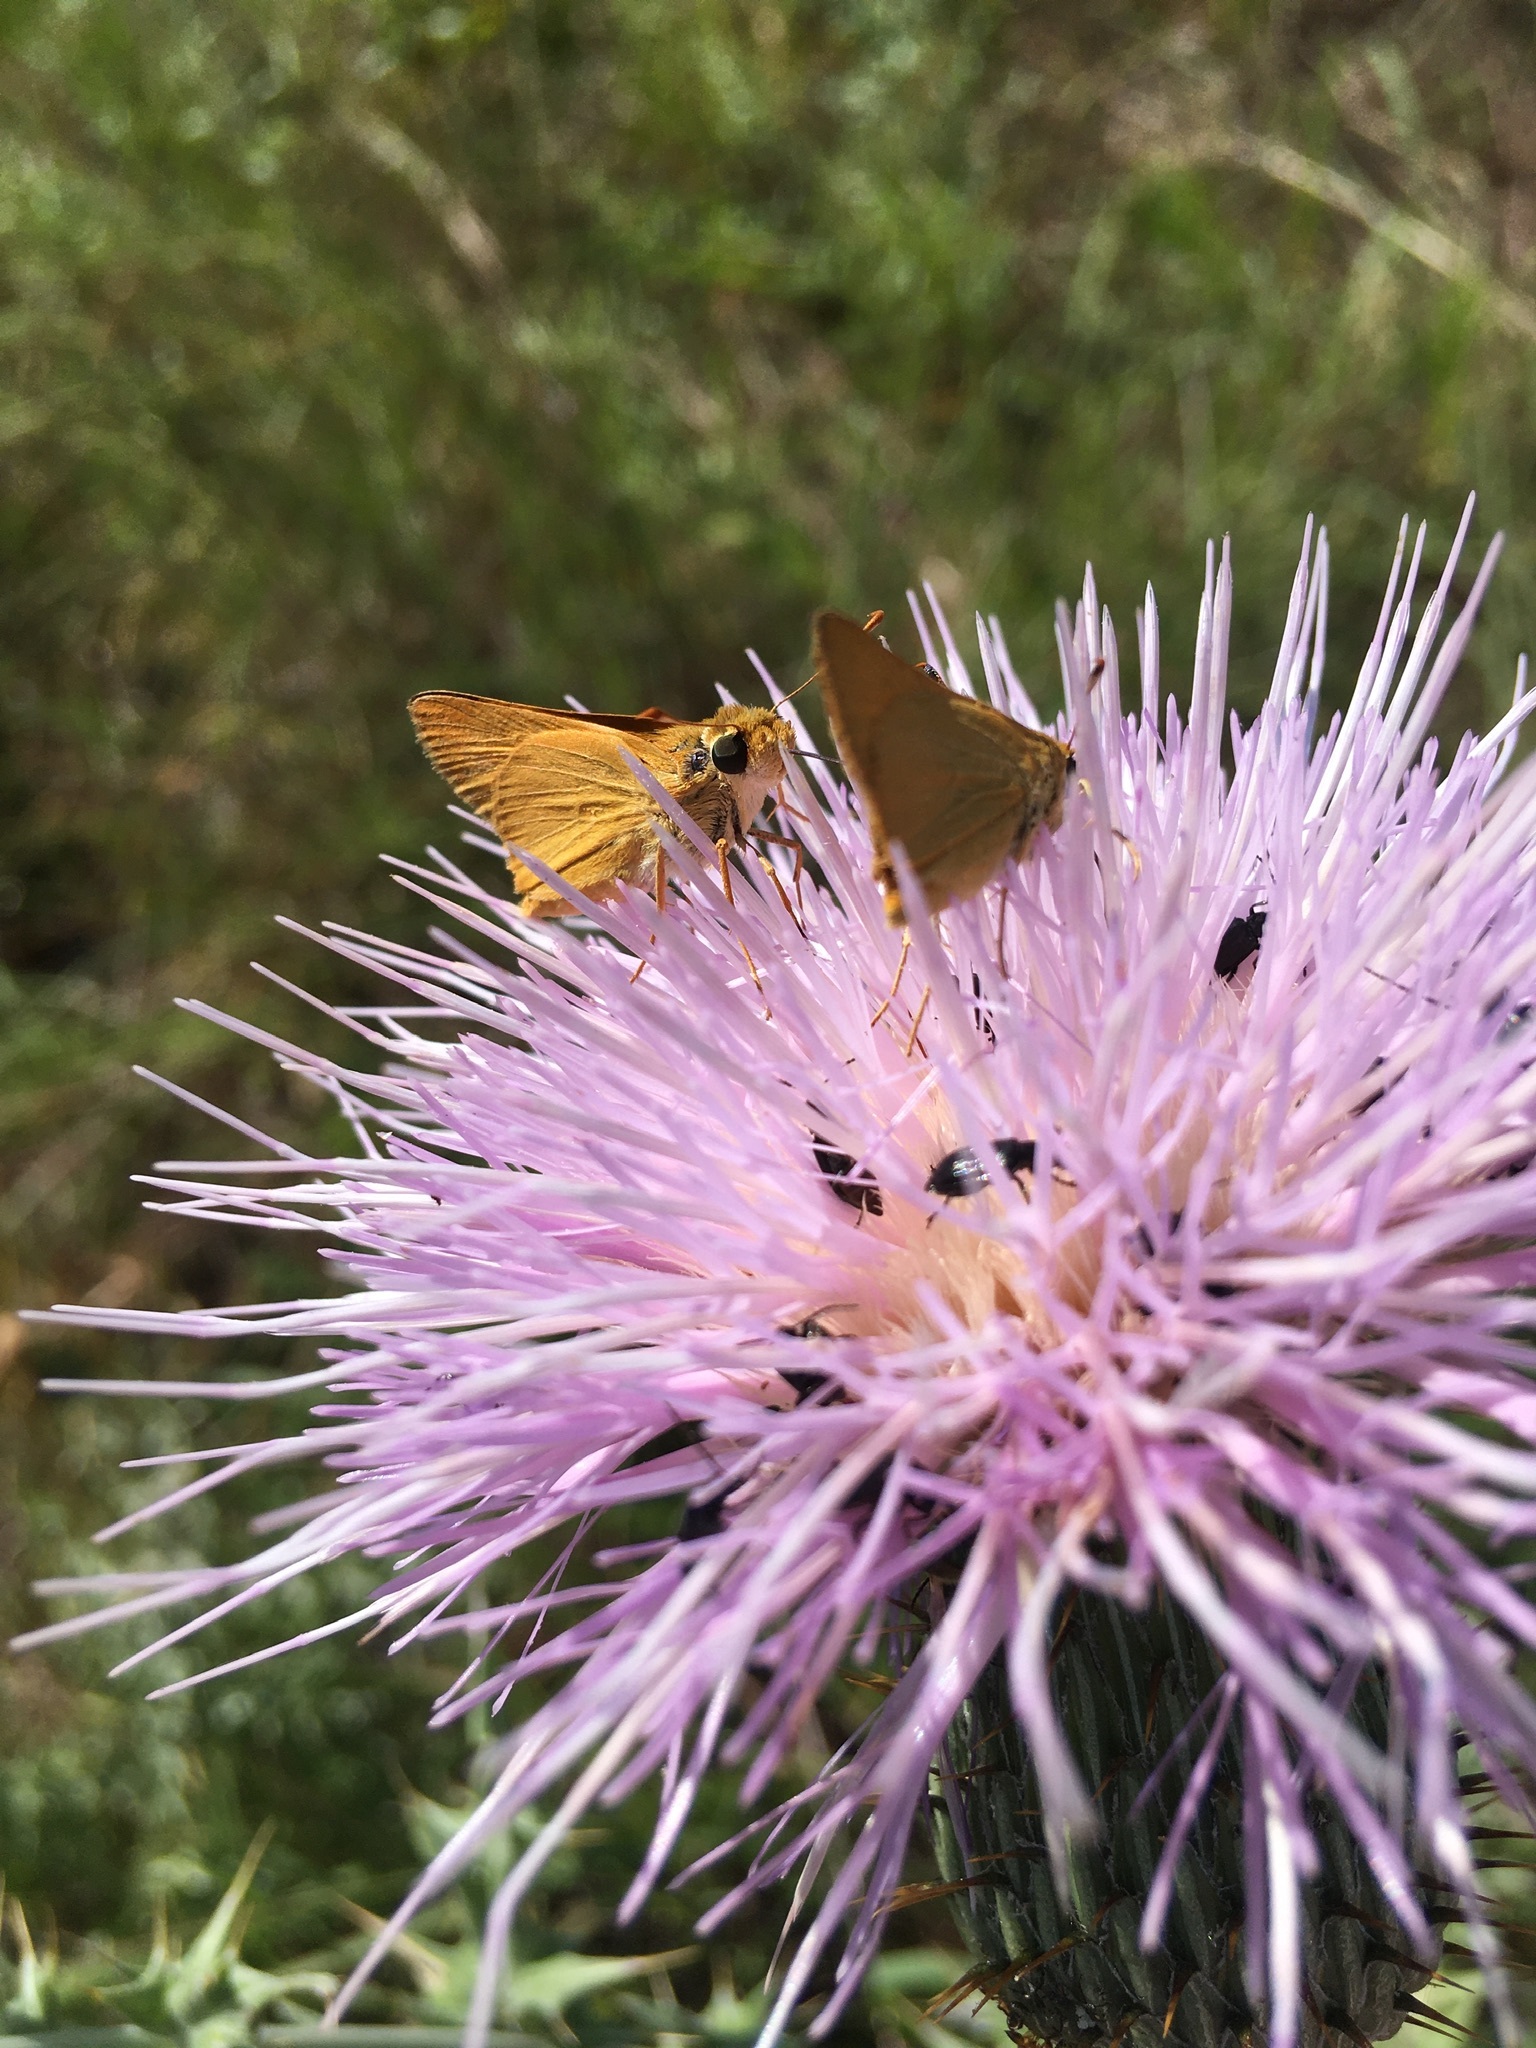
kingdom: Animalia
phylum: Arthropoda
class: Insecta
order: Lepidoptera
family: Hesperiidae
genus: Atrytone
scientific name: Atrytone delaware
